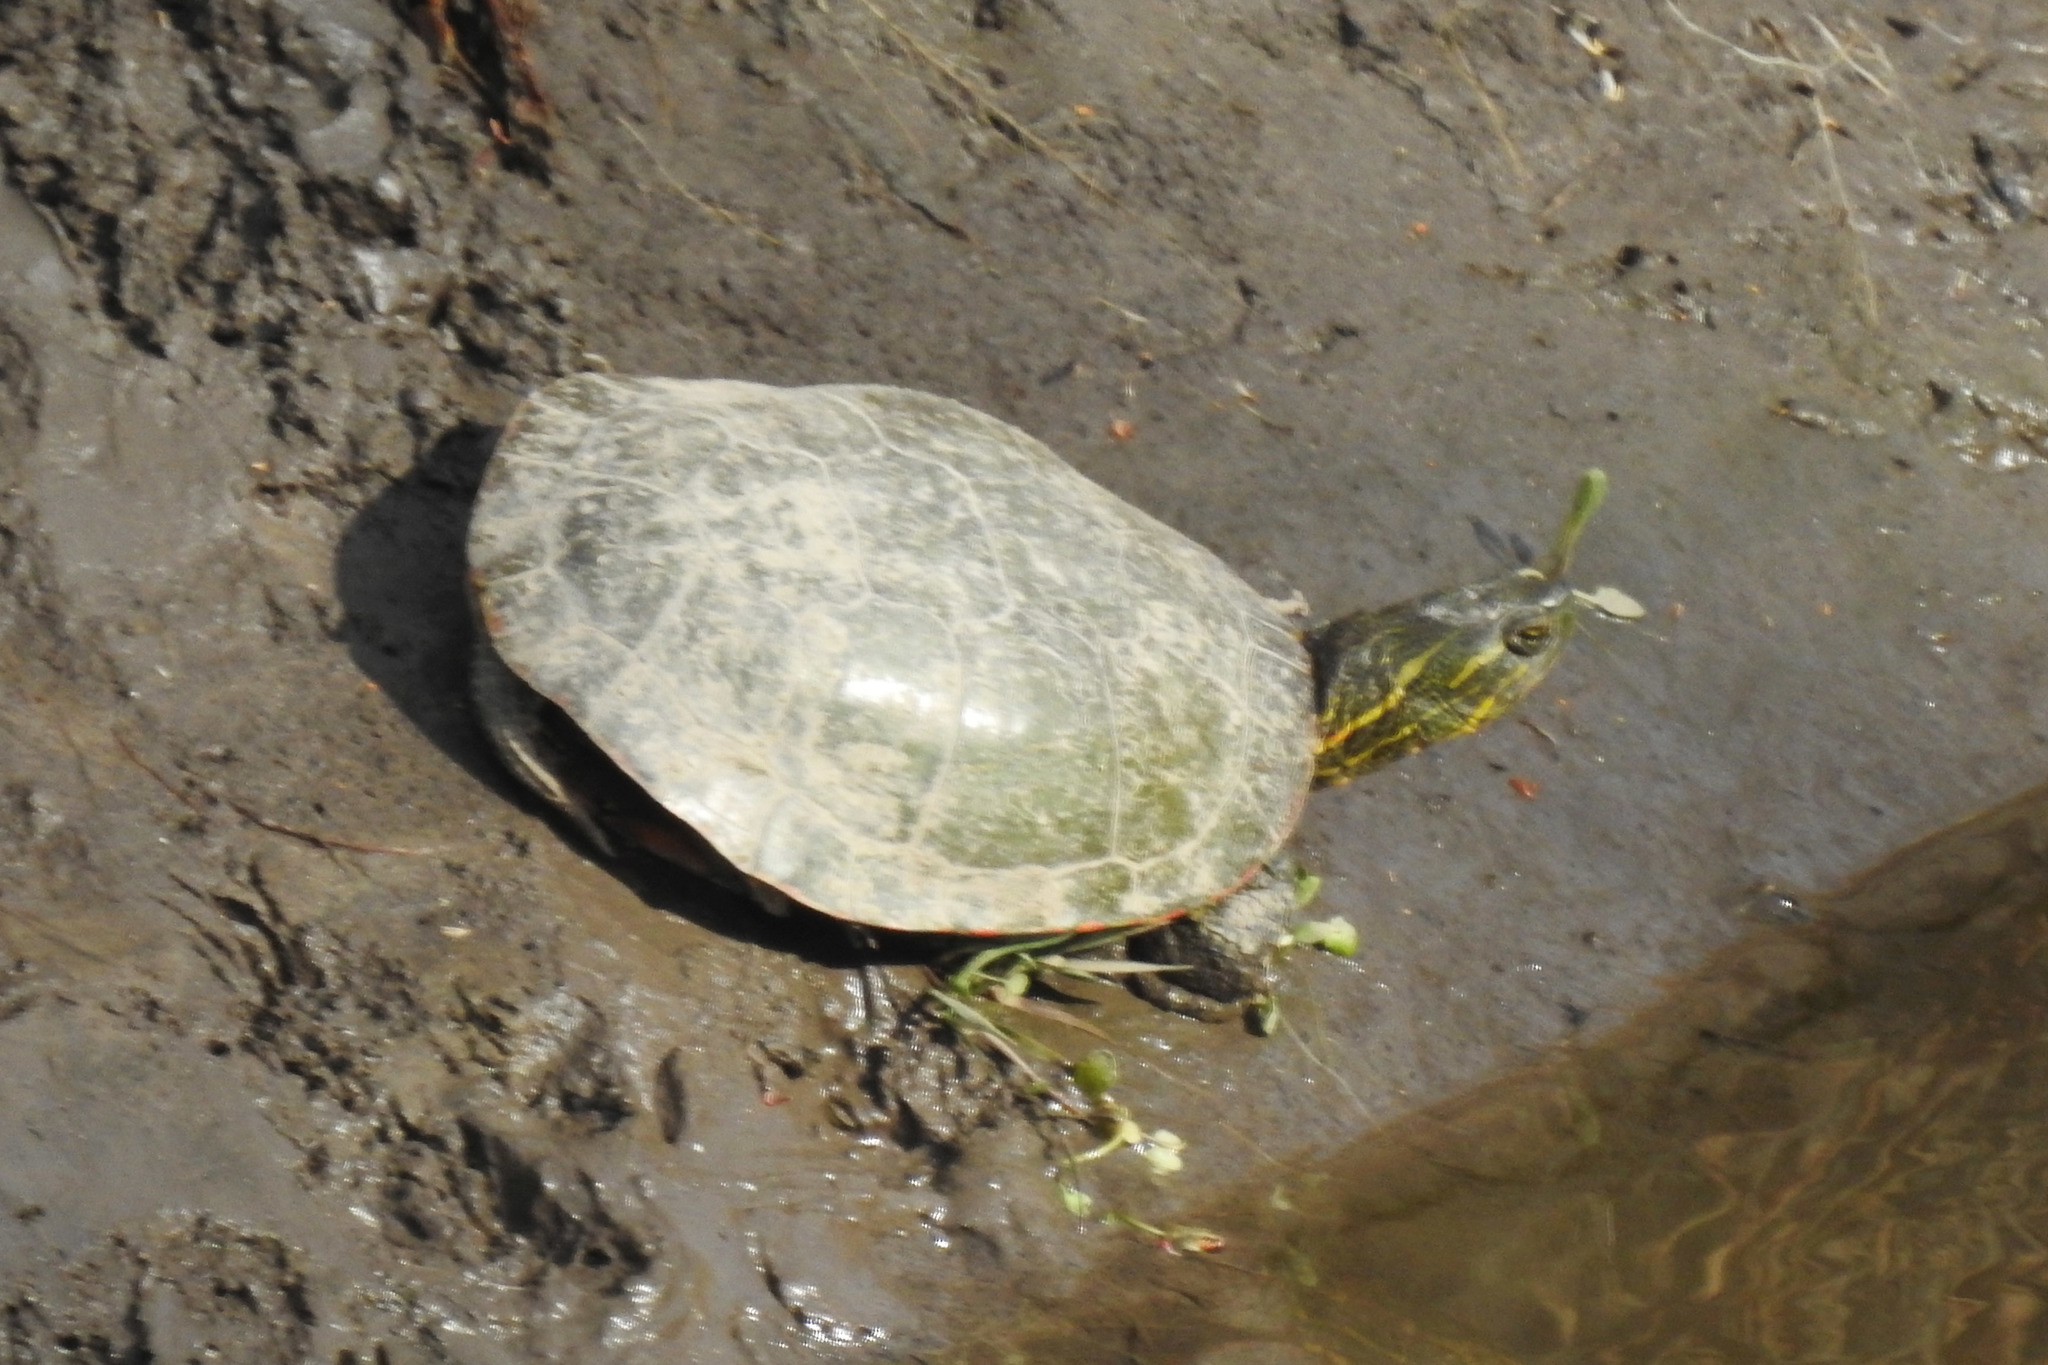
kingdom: Animalia
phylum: Chordata
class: Testudines
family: Emydidae
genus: Chrysemys
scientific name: Chrysemys picta
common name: Painted turtle
